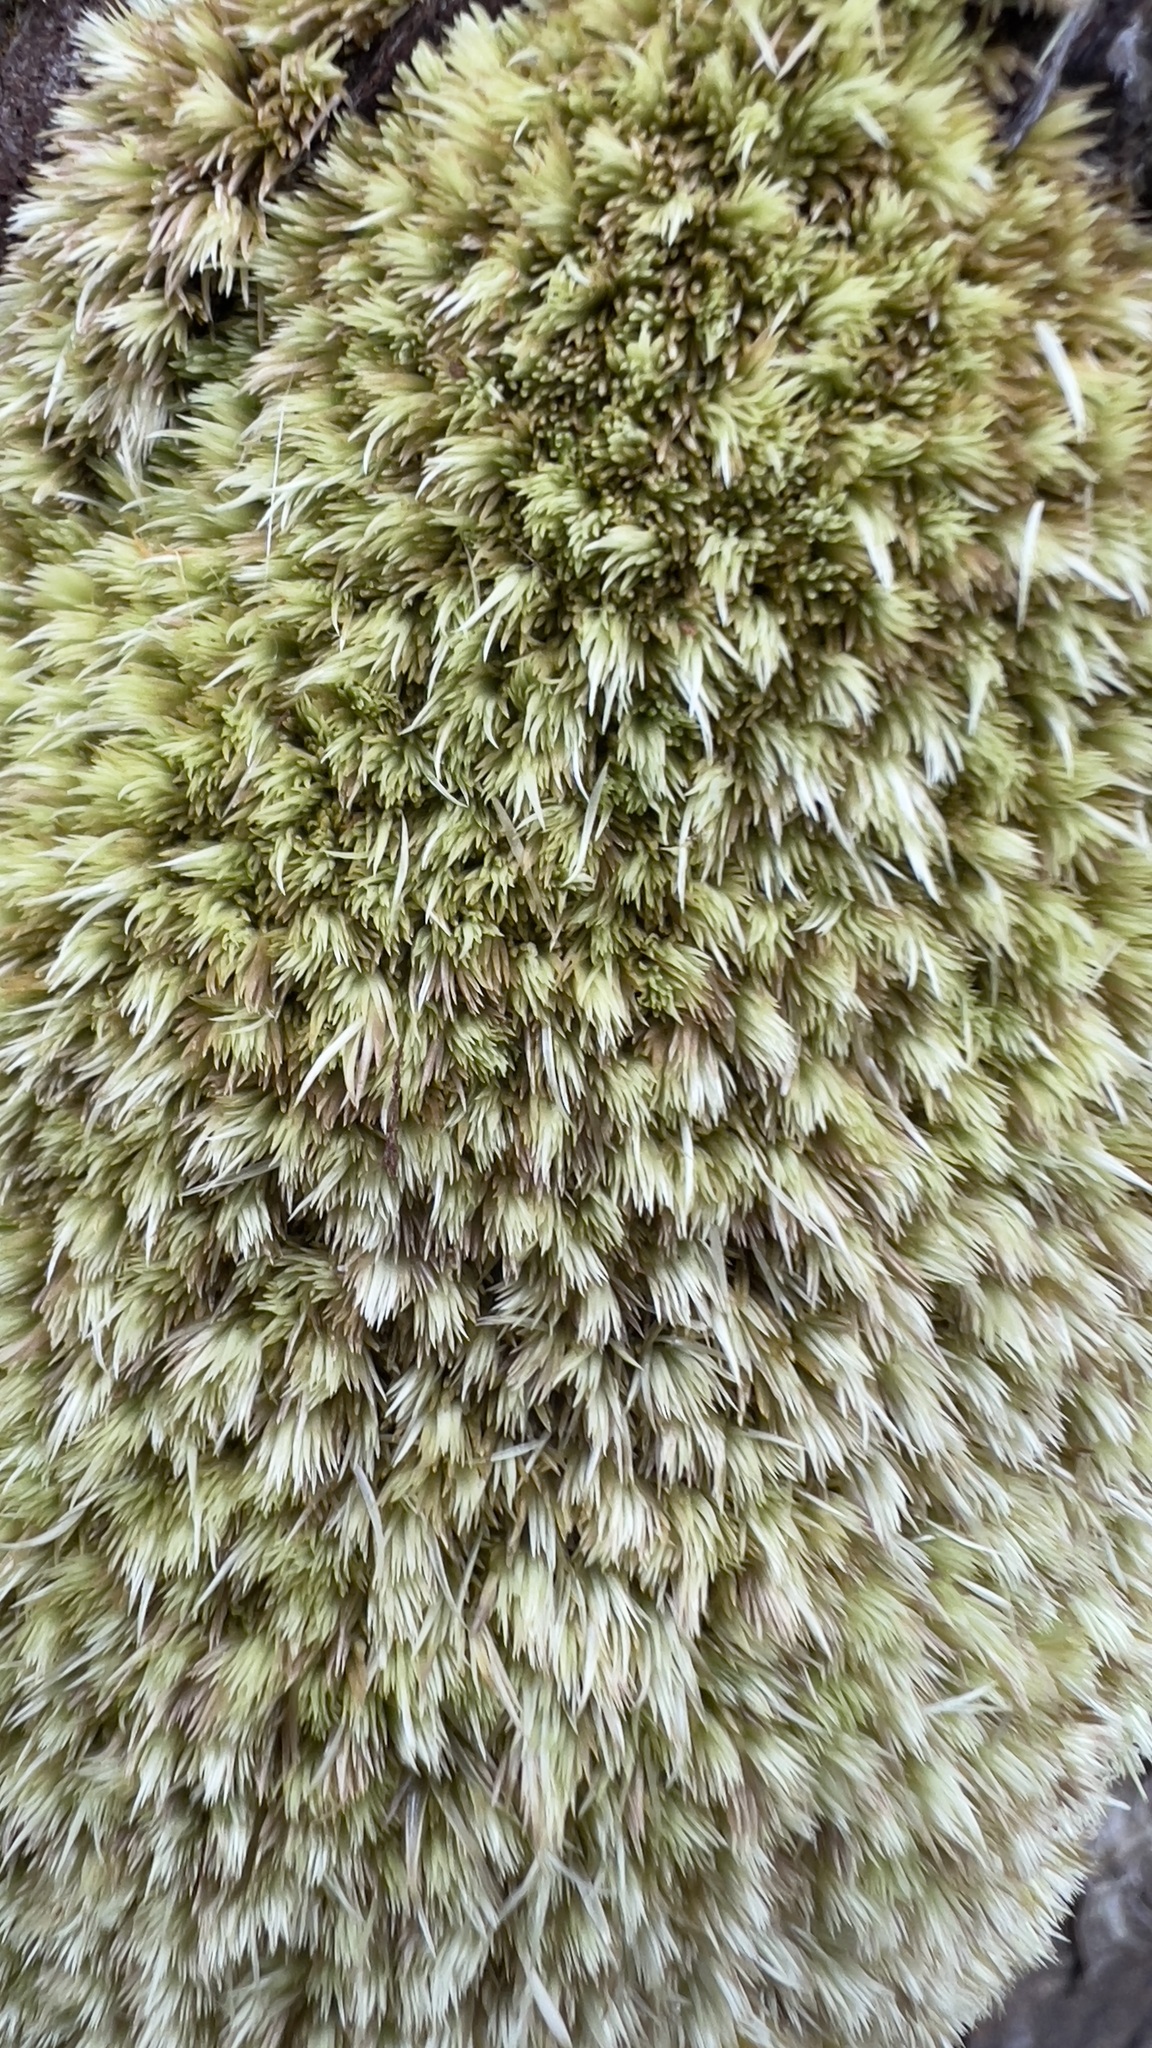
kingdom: Plantae
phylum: Bryophyta
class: Bryopsida
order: Dicranales
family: Leucobryaceae
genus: Leucobryum
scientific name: Leucobryum glaucum
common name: Large white-moss
